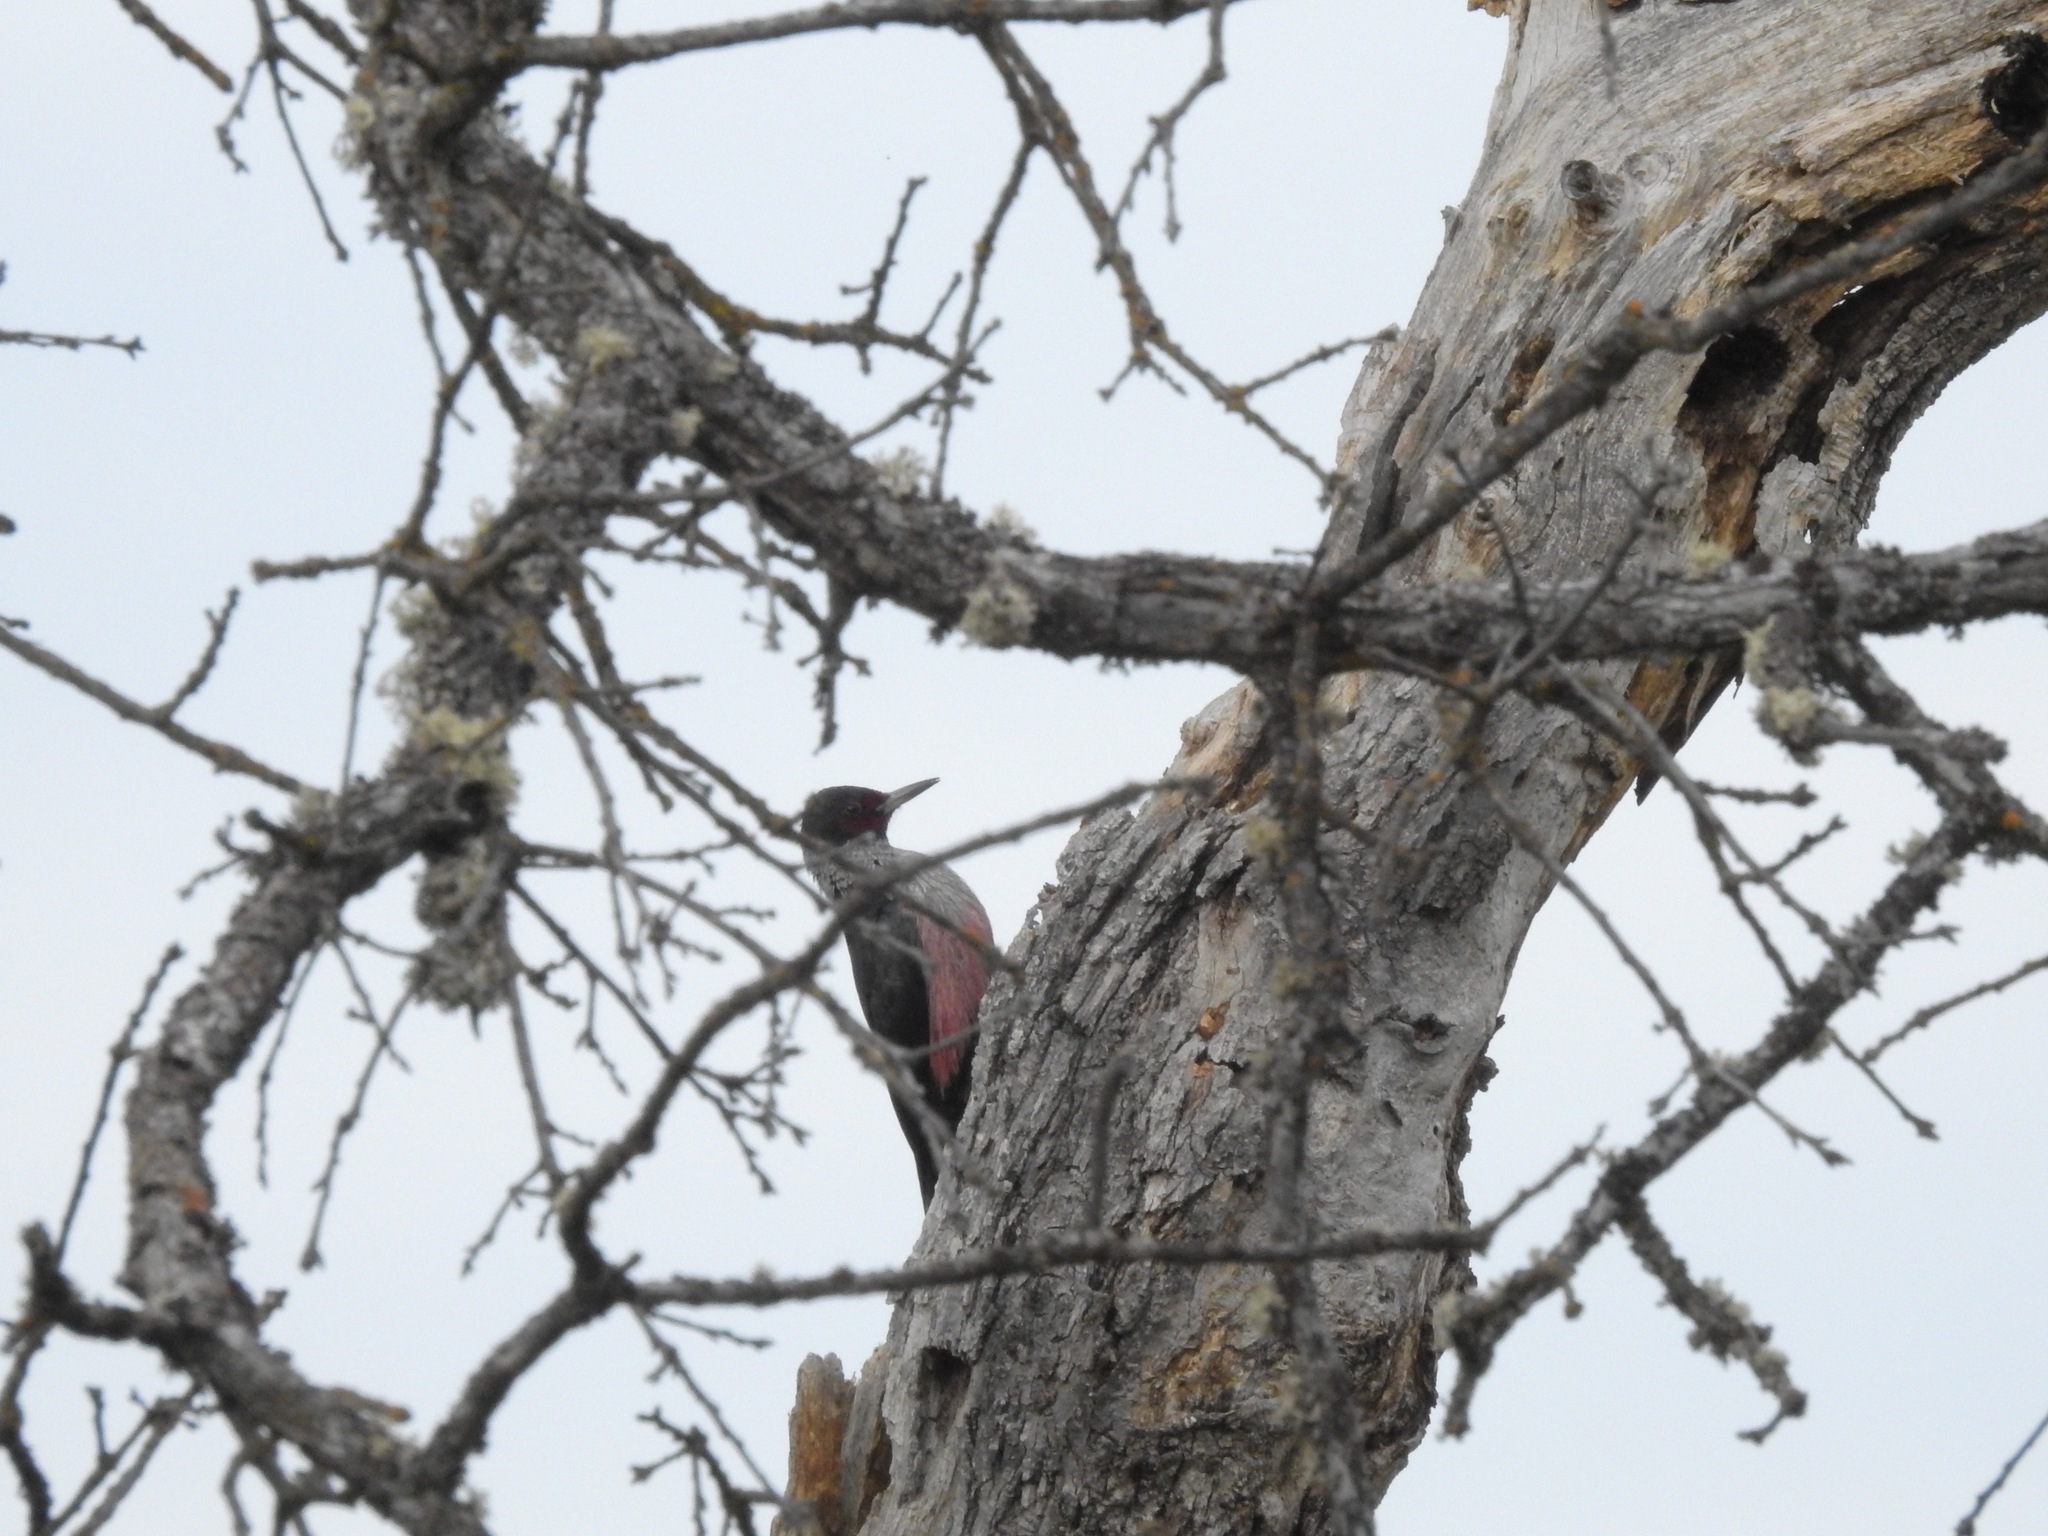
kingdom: Animalia
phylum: Chordata
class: Aves
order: Piciformes
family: Picidae
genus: Melanerpes
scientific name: Melanerpes lewis
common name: Lewis's woodpecker
